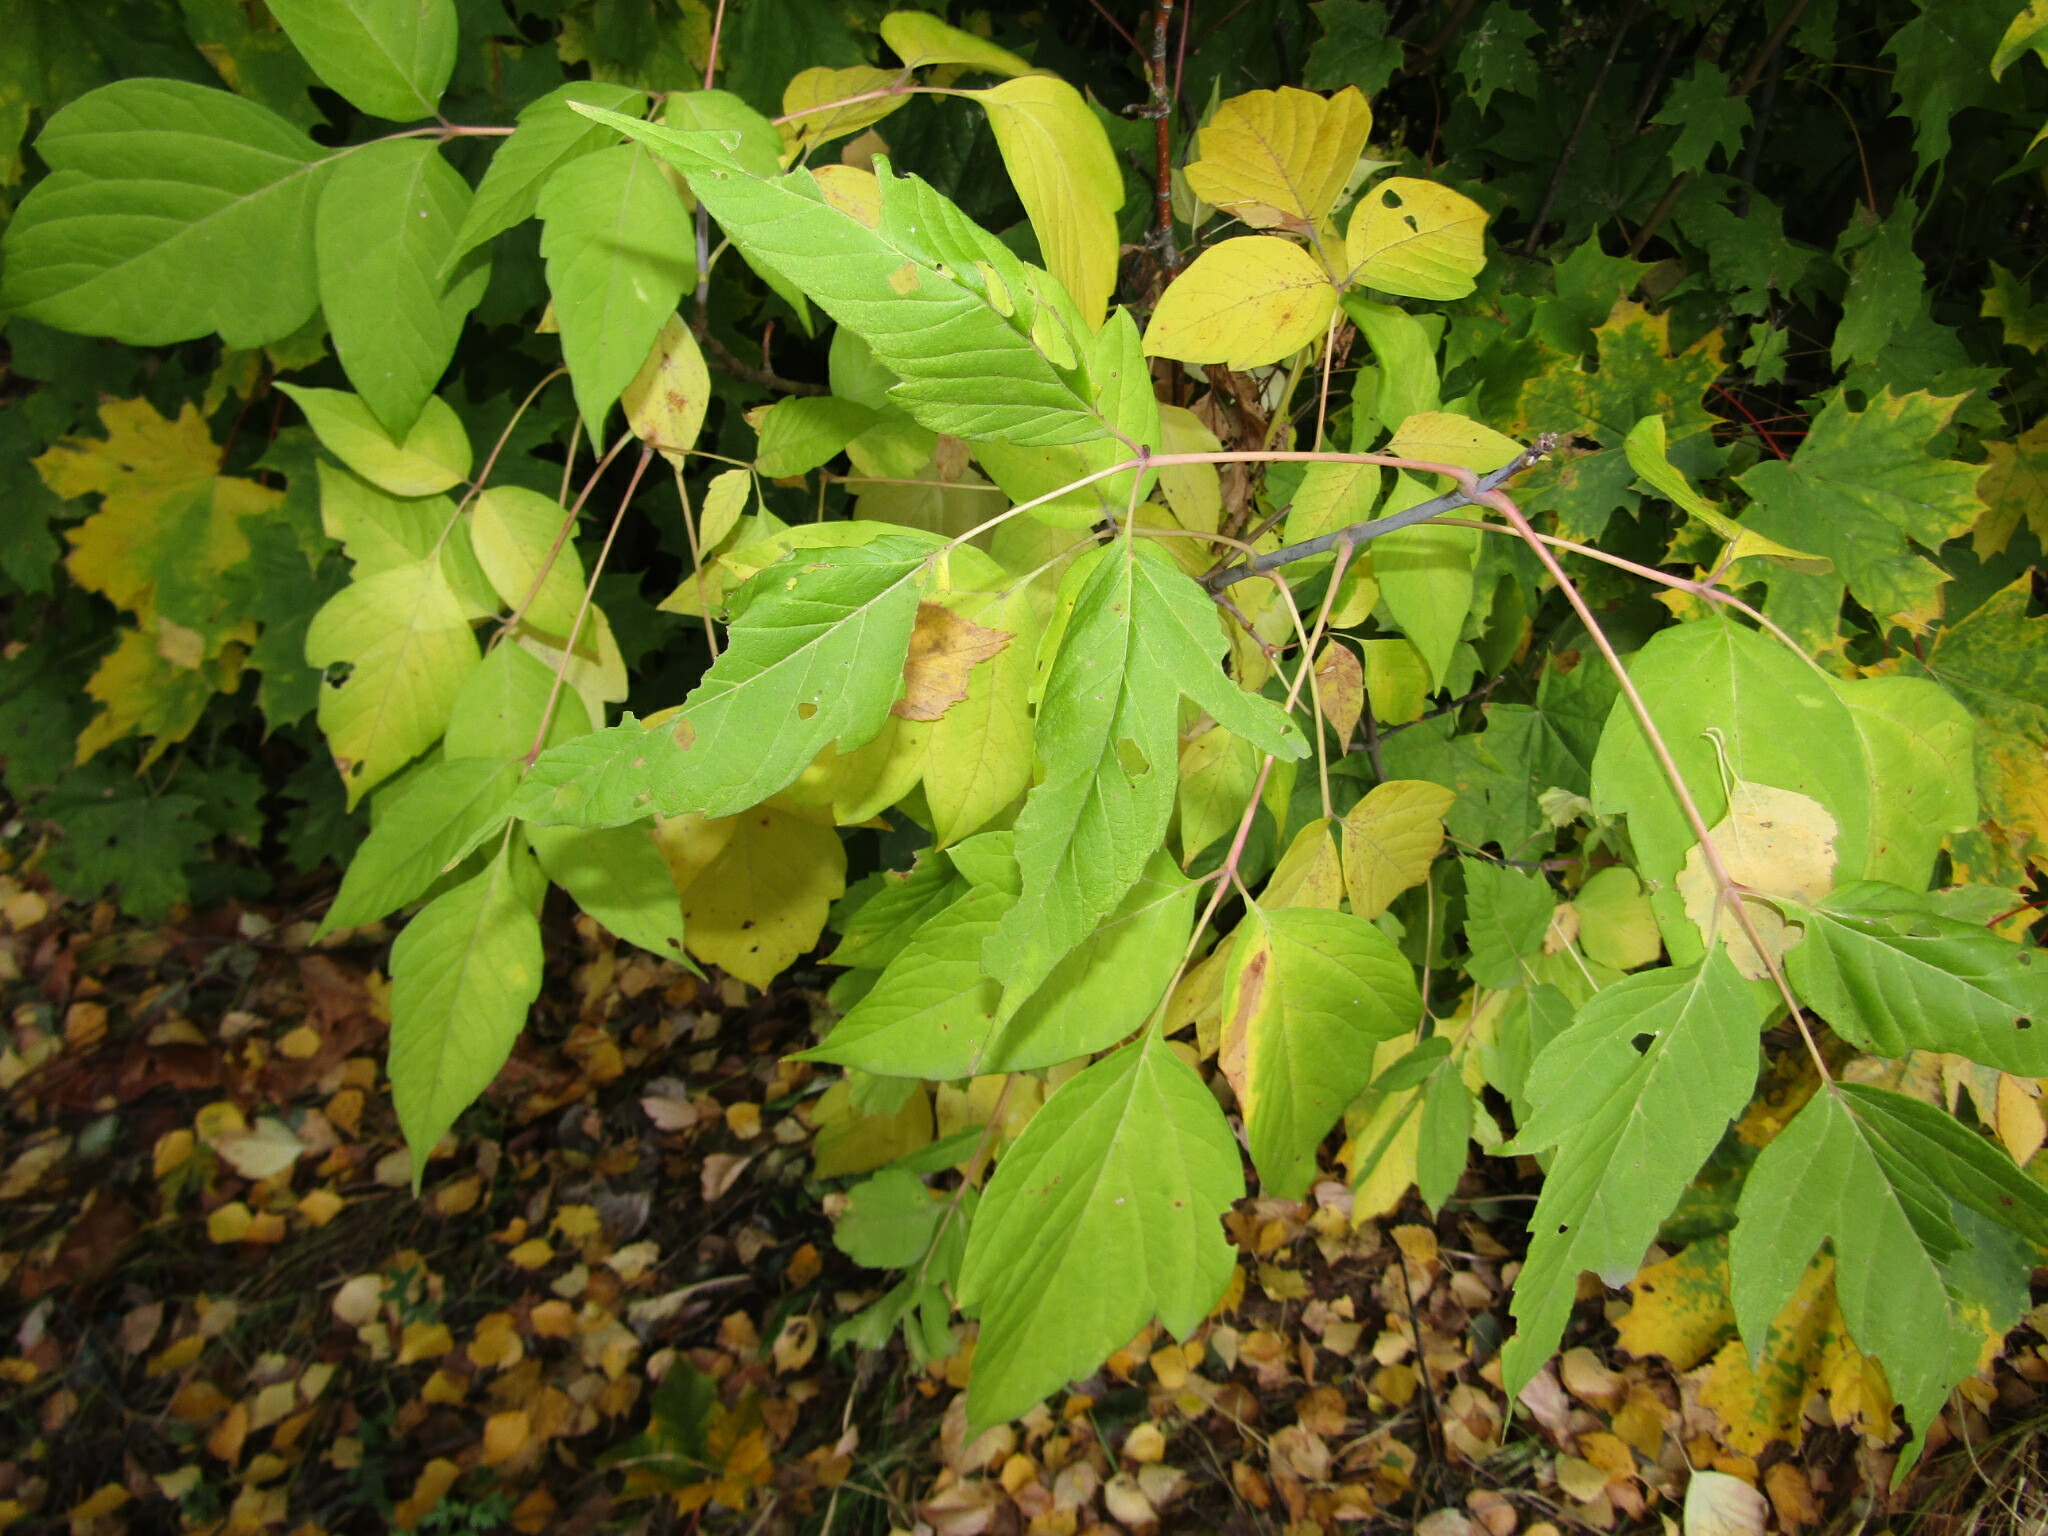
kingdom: Plantae
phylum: Tracheophyta
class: Magnoliopsida
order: Sapindales
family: Sapindaceae
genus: Acer
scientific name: Acer negundo
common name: Ashleaf maple
